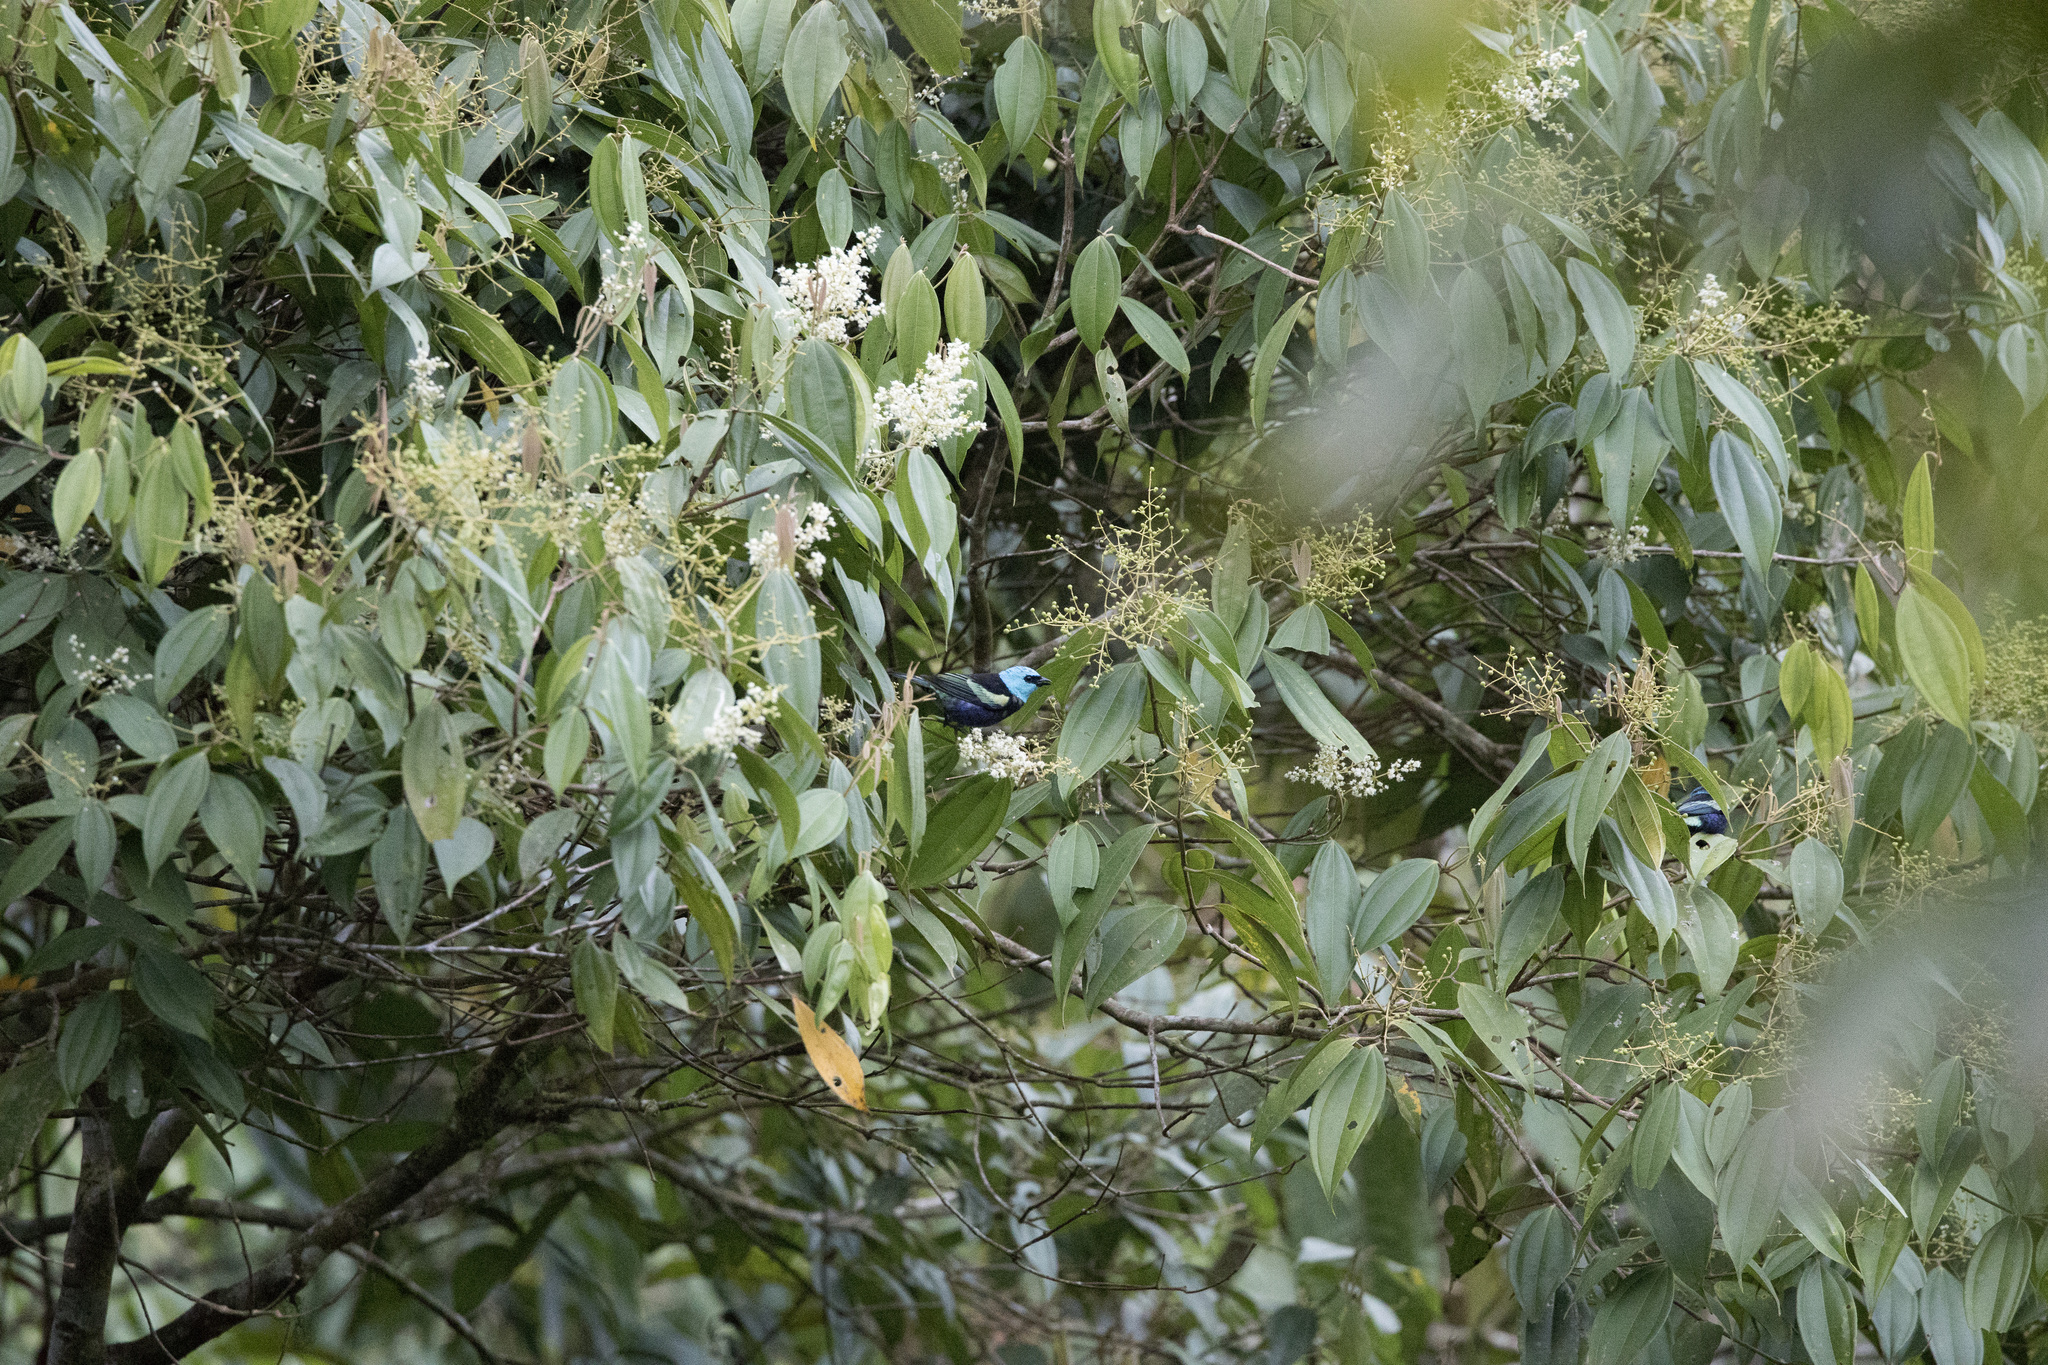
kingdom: Animalia
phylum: Chordata
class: Aves
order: Passeriformes
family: Thraupidae
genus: Stilpnia
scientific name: Stilpnia cyanicollis
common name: Blue-necked tanager
